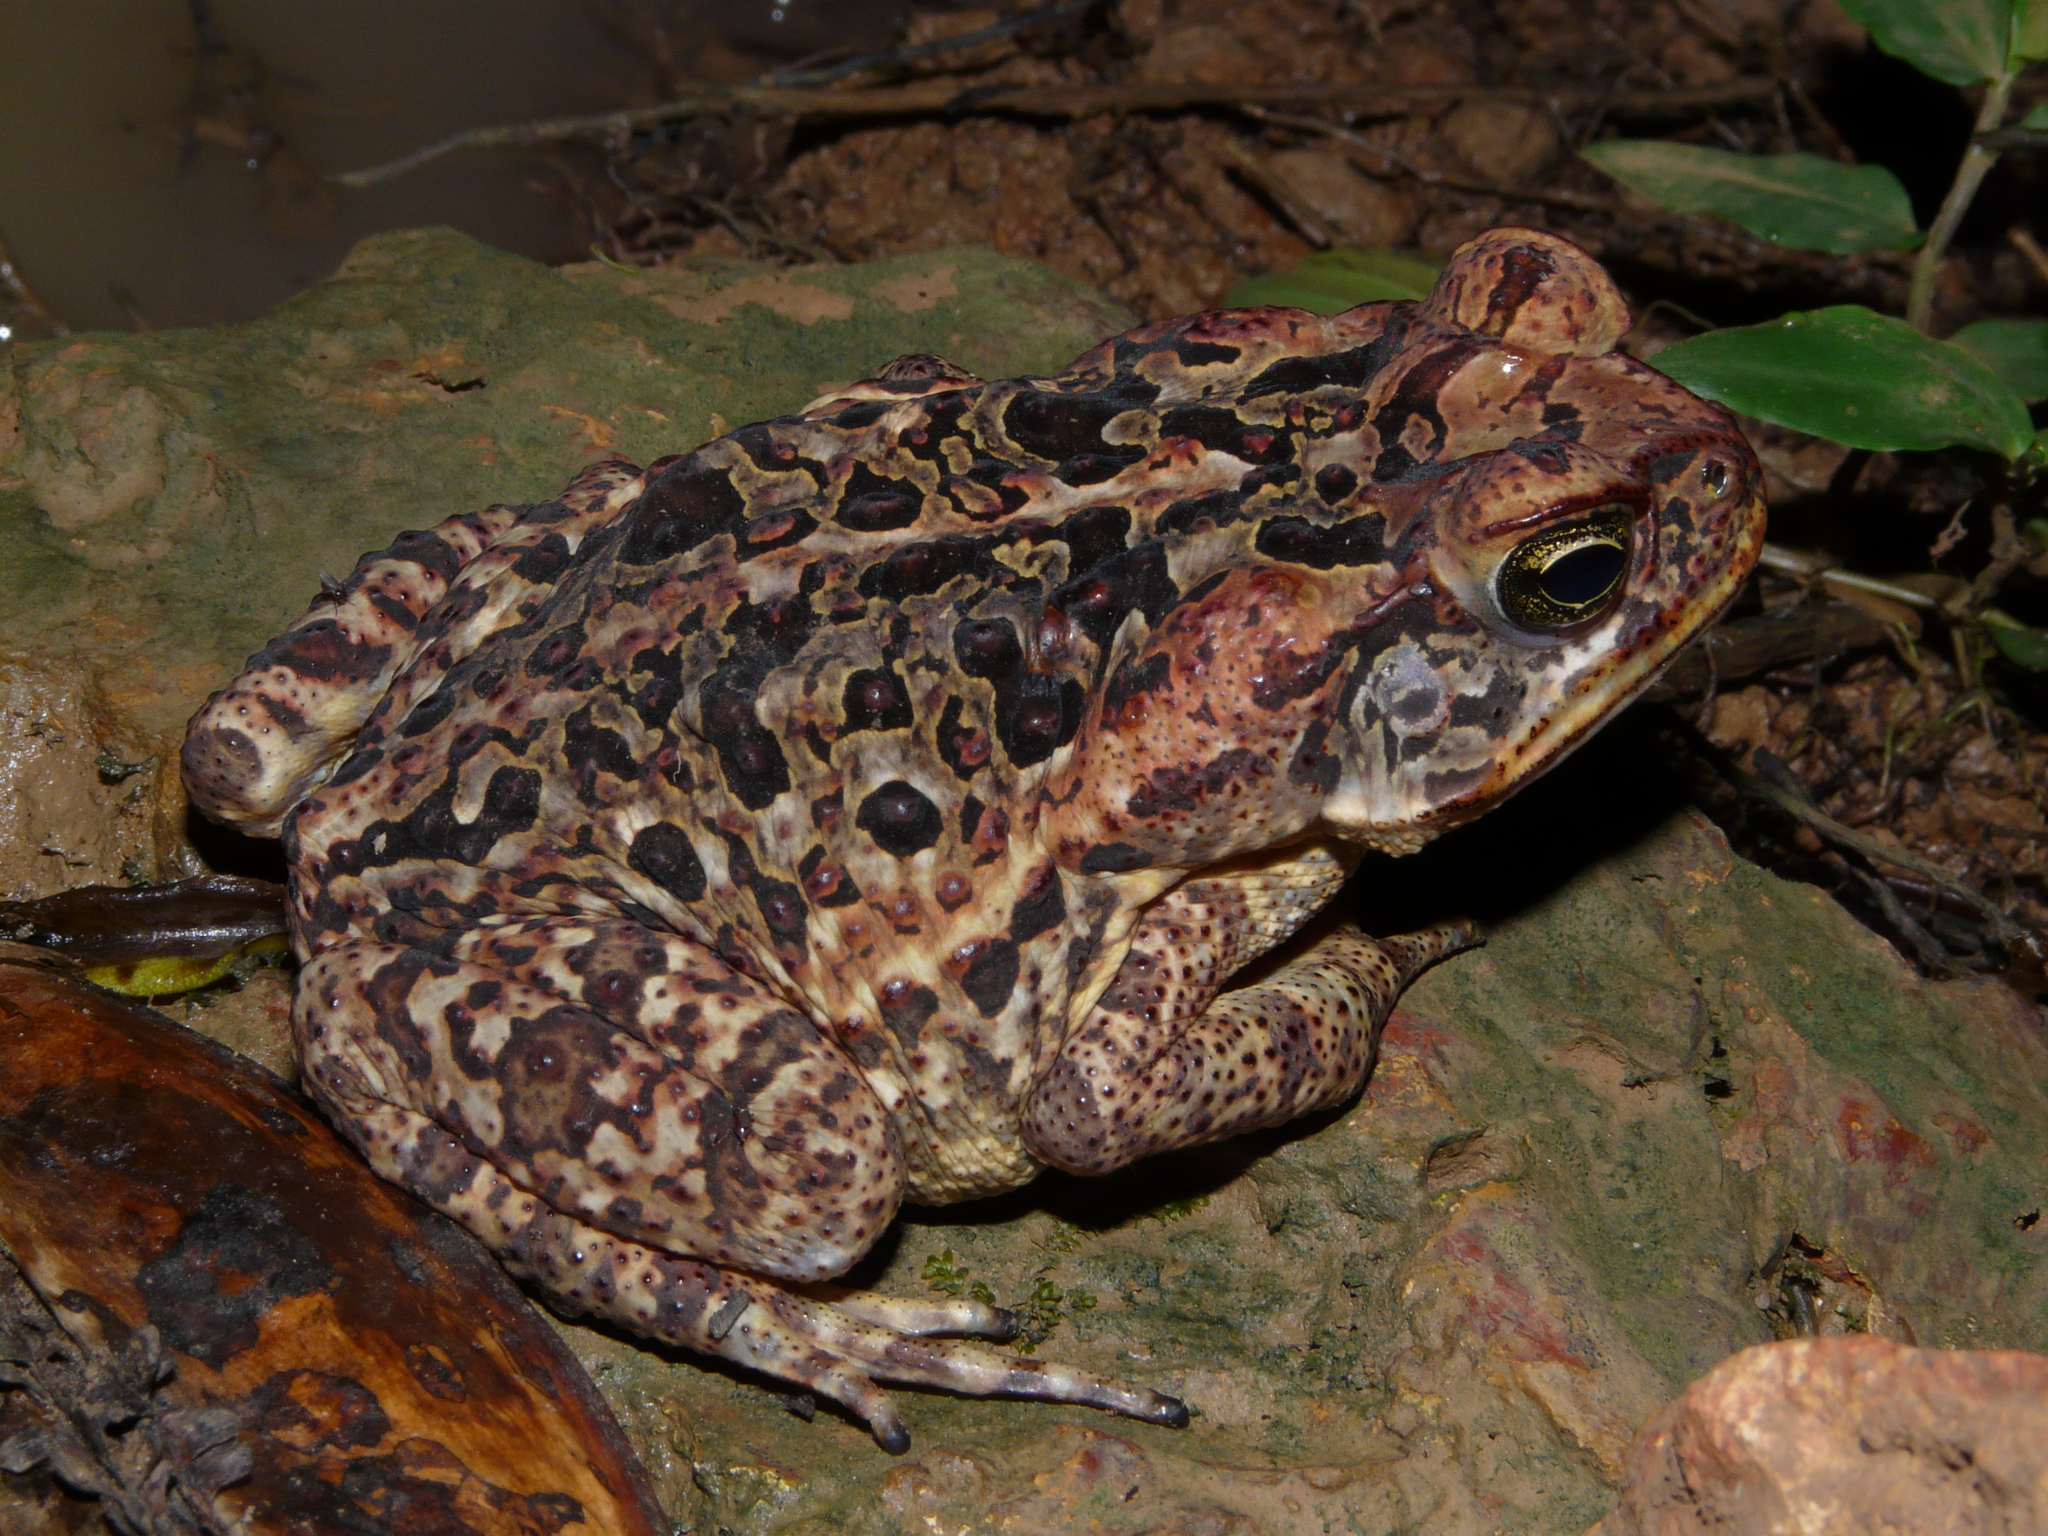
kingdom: Animalia
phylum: Chordata
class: Amphibia
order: Anura
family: Bufonidae
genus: Rhinella
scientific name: Rhinella marina
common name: Cane toad
